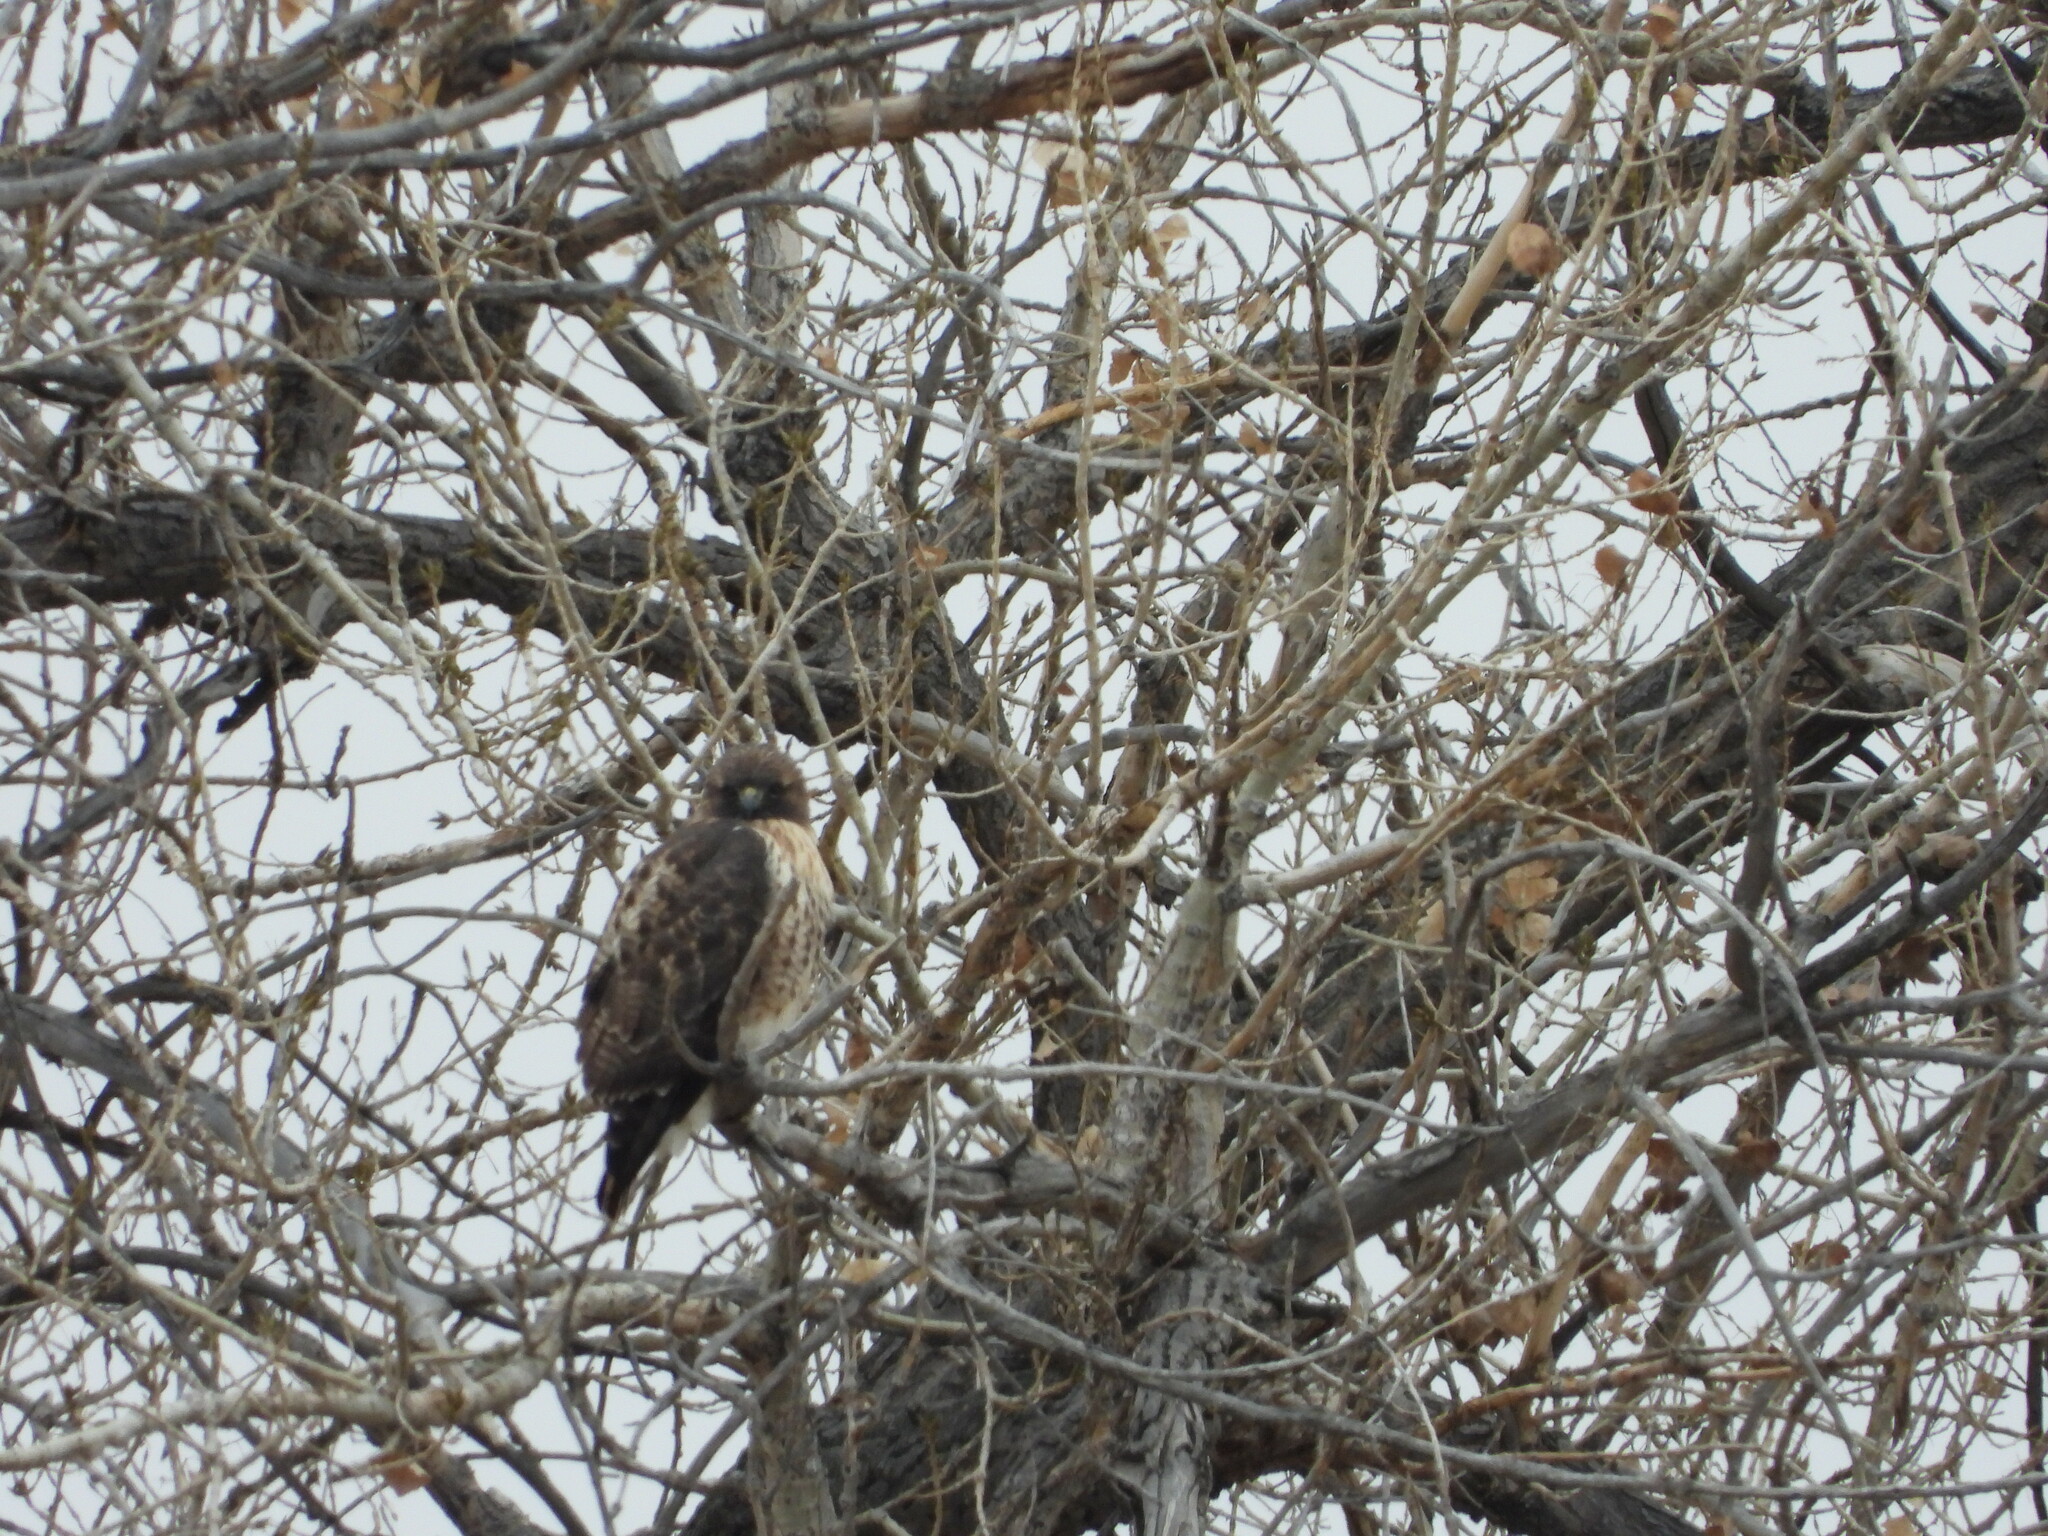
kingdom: Animalia
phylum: Chordata
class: Aves
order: Accipitriformes
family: Accipitridae
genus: Buteo
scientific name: Buteo jamaicensis
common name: Red-tailed hawk
